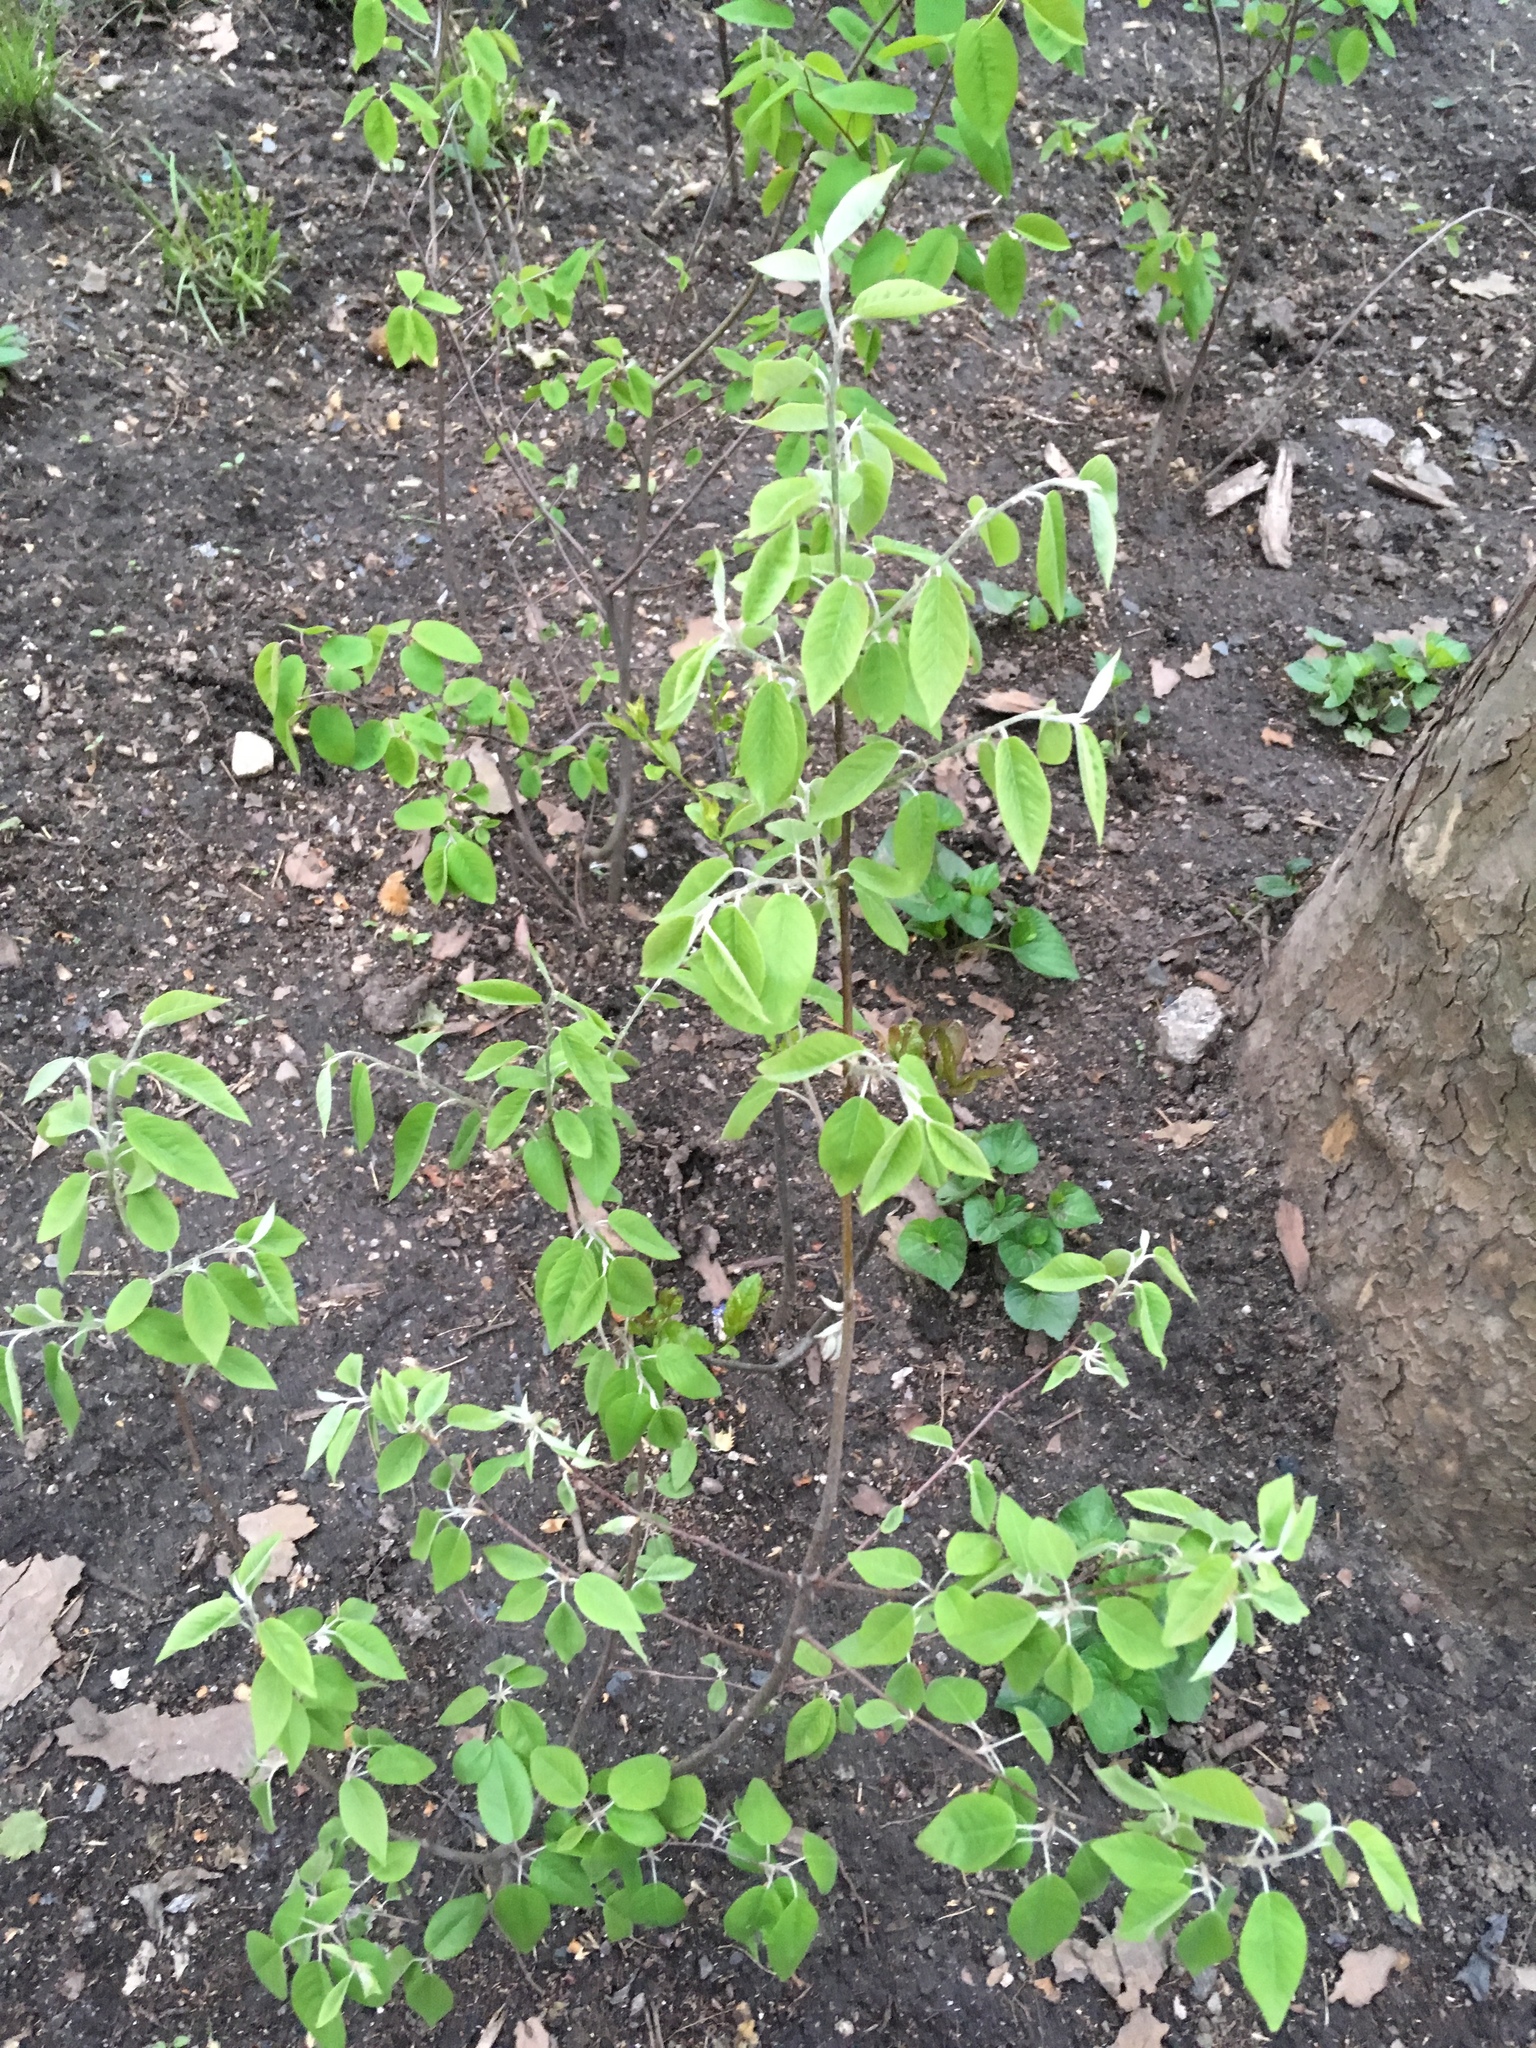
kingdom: Plantae
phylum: Tracheophyta
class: Magnoliopsida
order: Rosales
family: Rosaceae
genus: Amelanchier
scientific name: Amelanchier arborea
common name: Downy serviceberry
